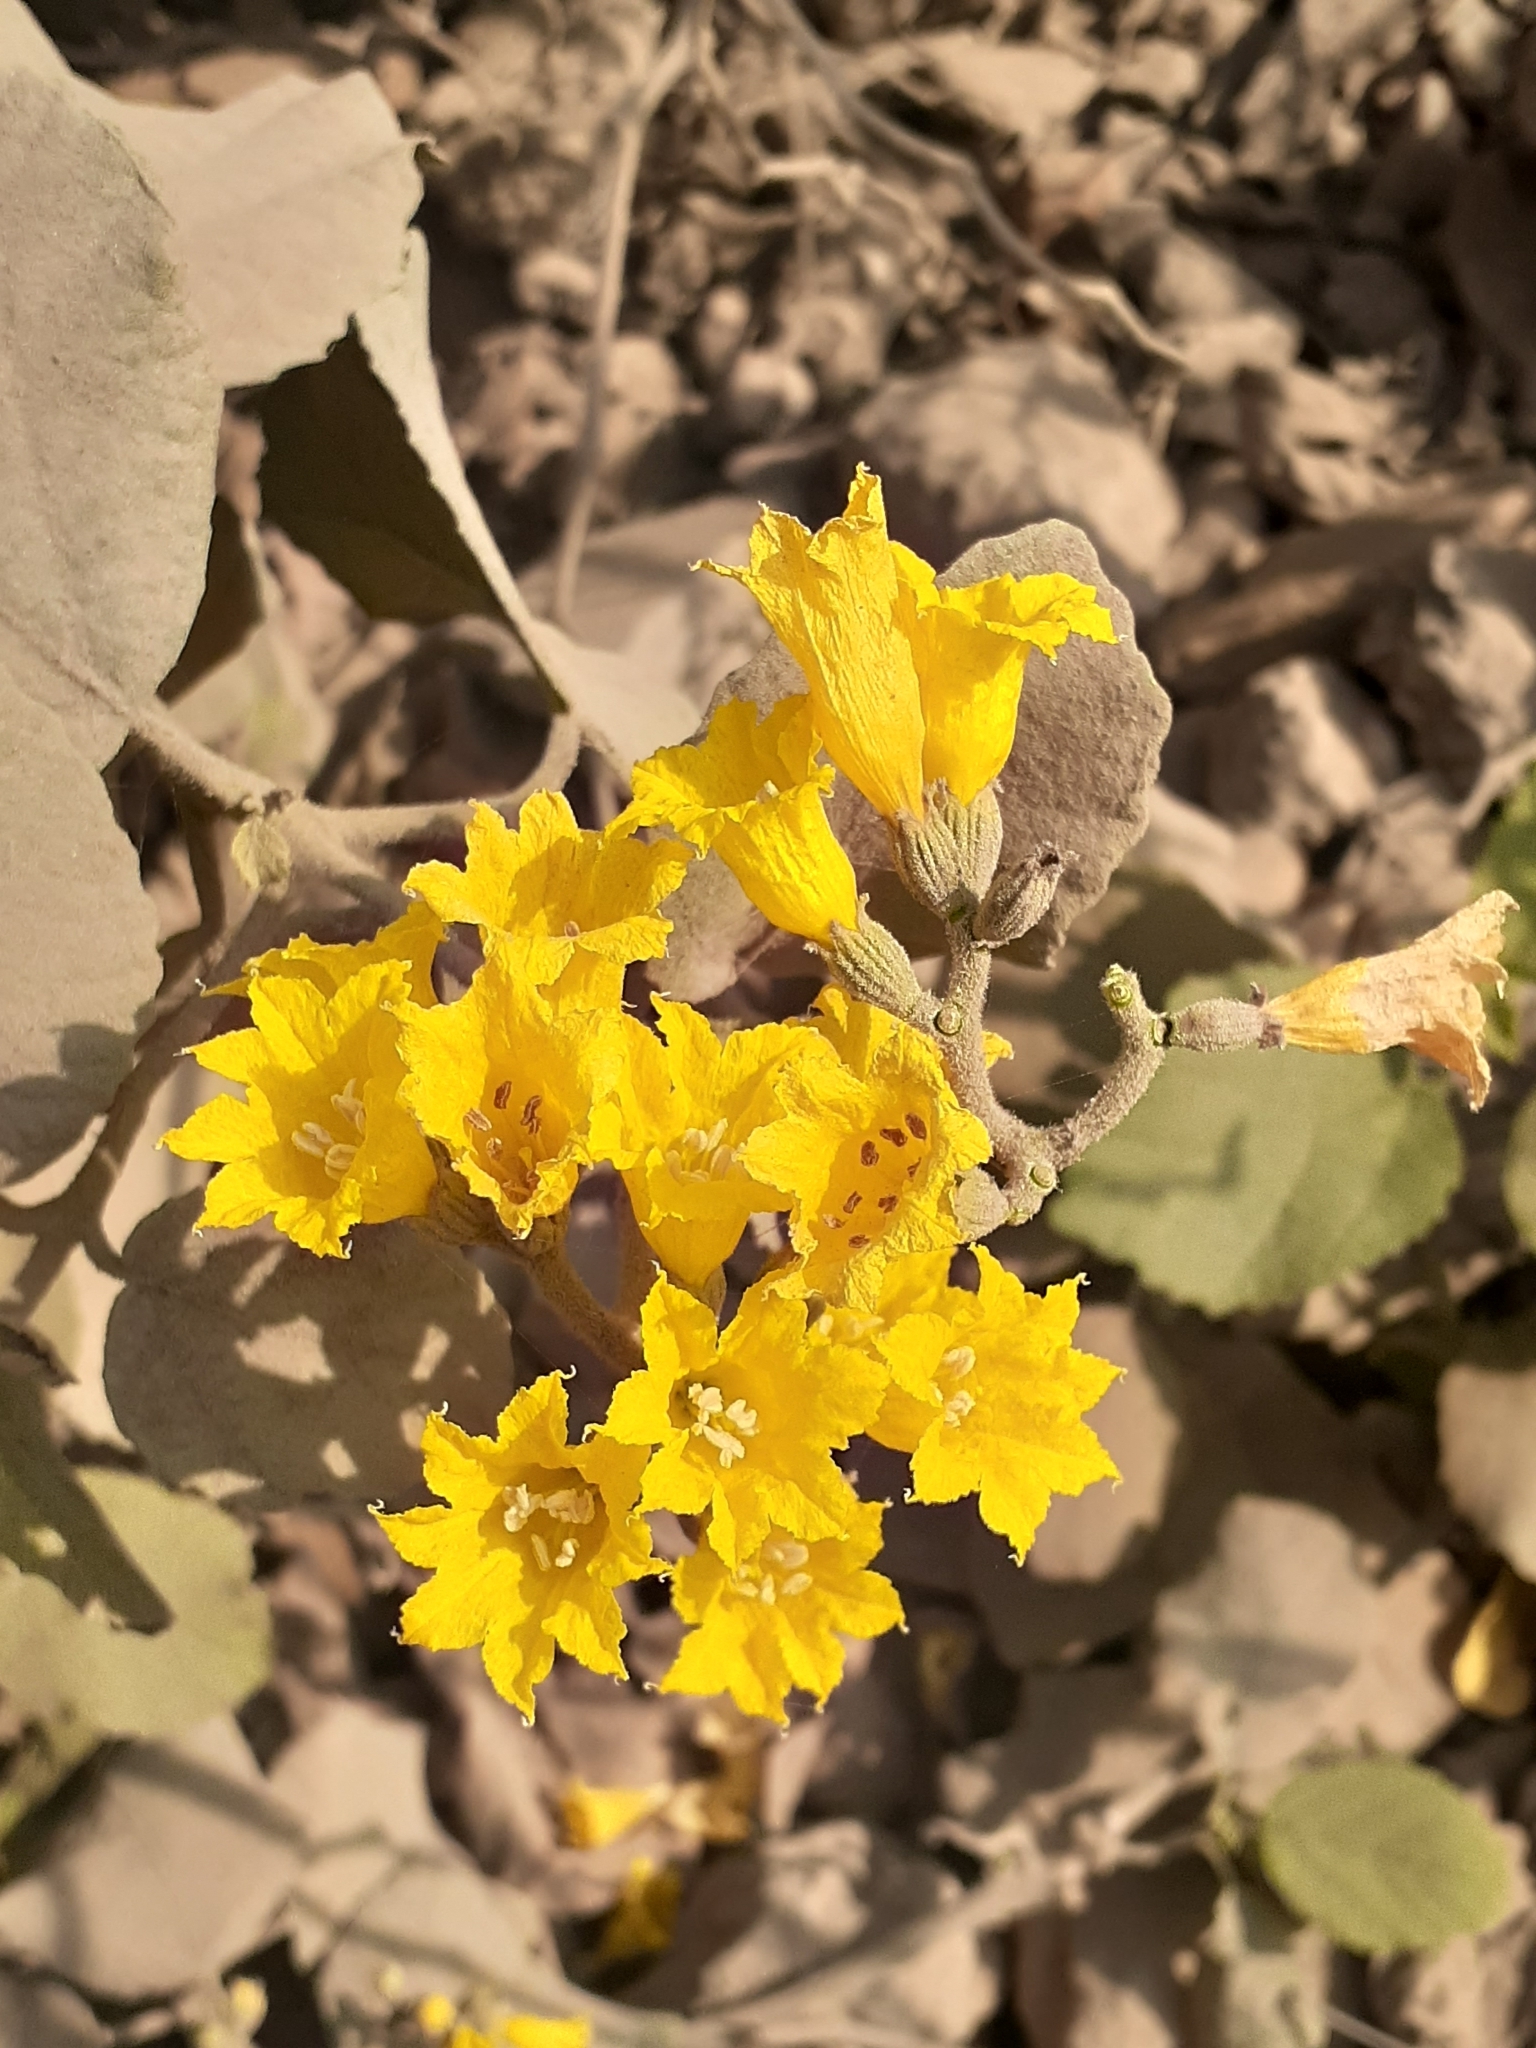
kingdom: Plantae
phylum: Tracheophyta
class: Magnoliopsida
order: Boraginales
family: Cordiaceae
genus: Cordia
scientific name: Cordia lutea
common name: Yellow geiger
